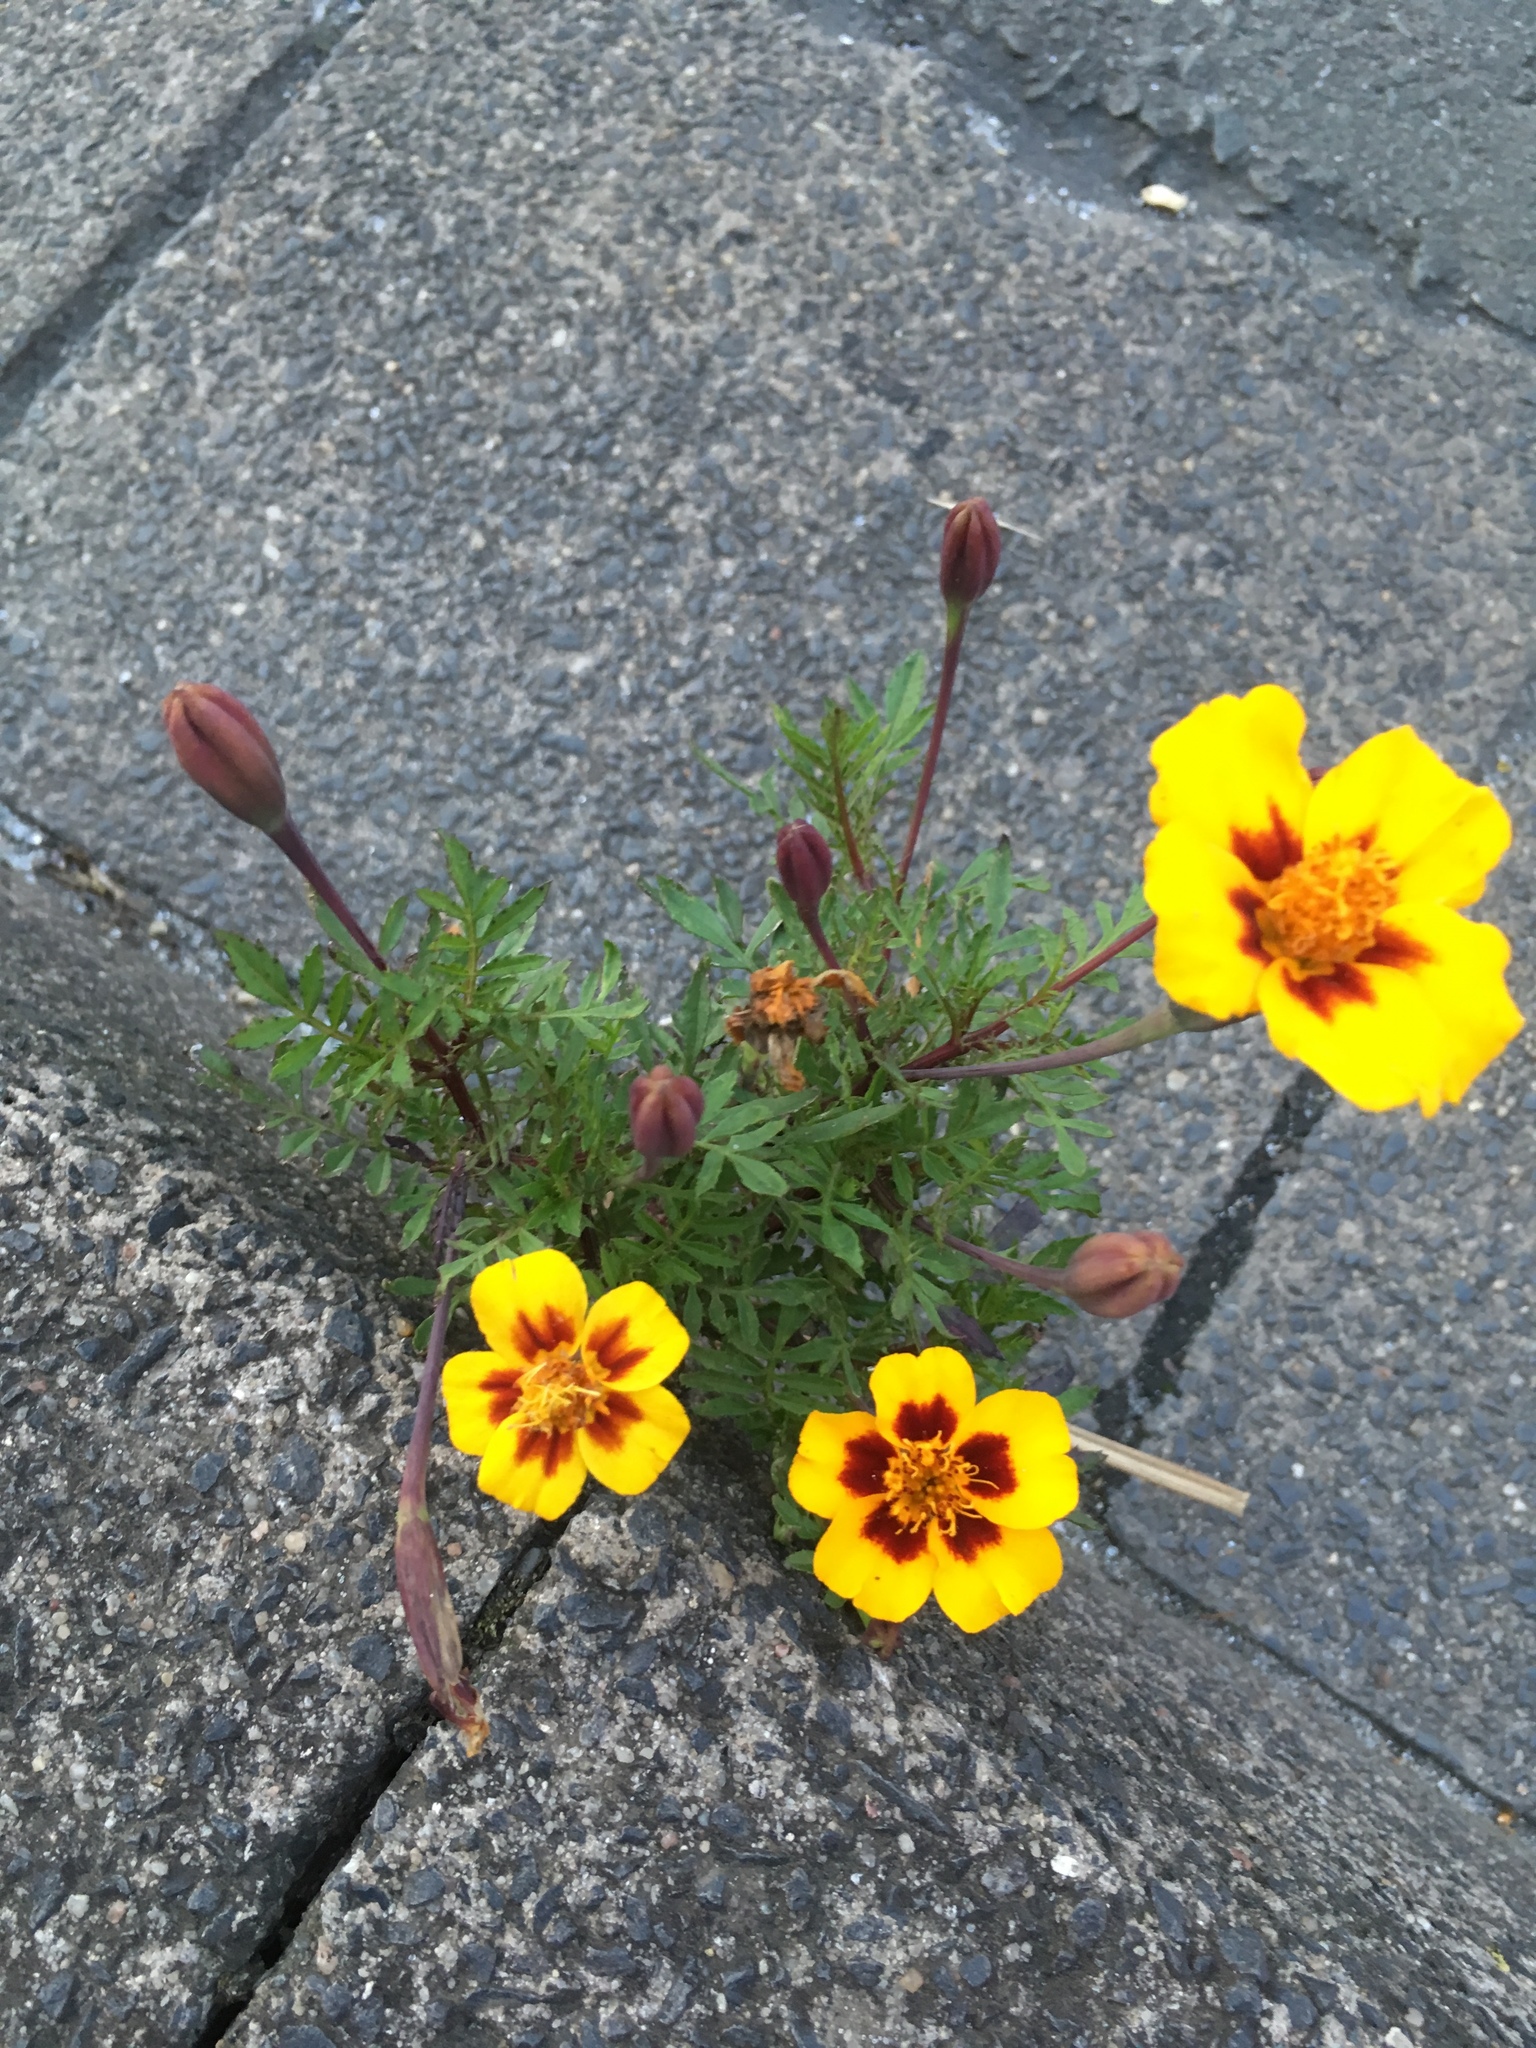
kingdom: Plantae
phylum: Tracheophyta
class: Magnoliopsida
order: Asterales
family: Asteraceae
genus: Tagetes
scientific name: Tagetes lunulata
